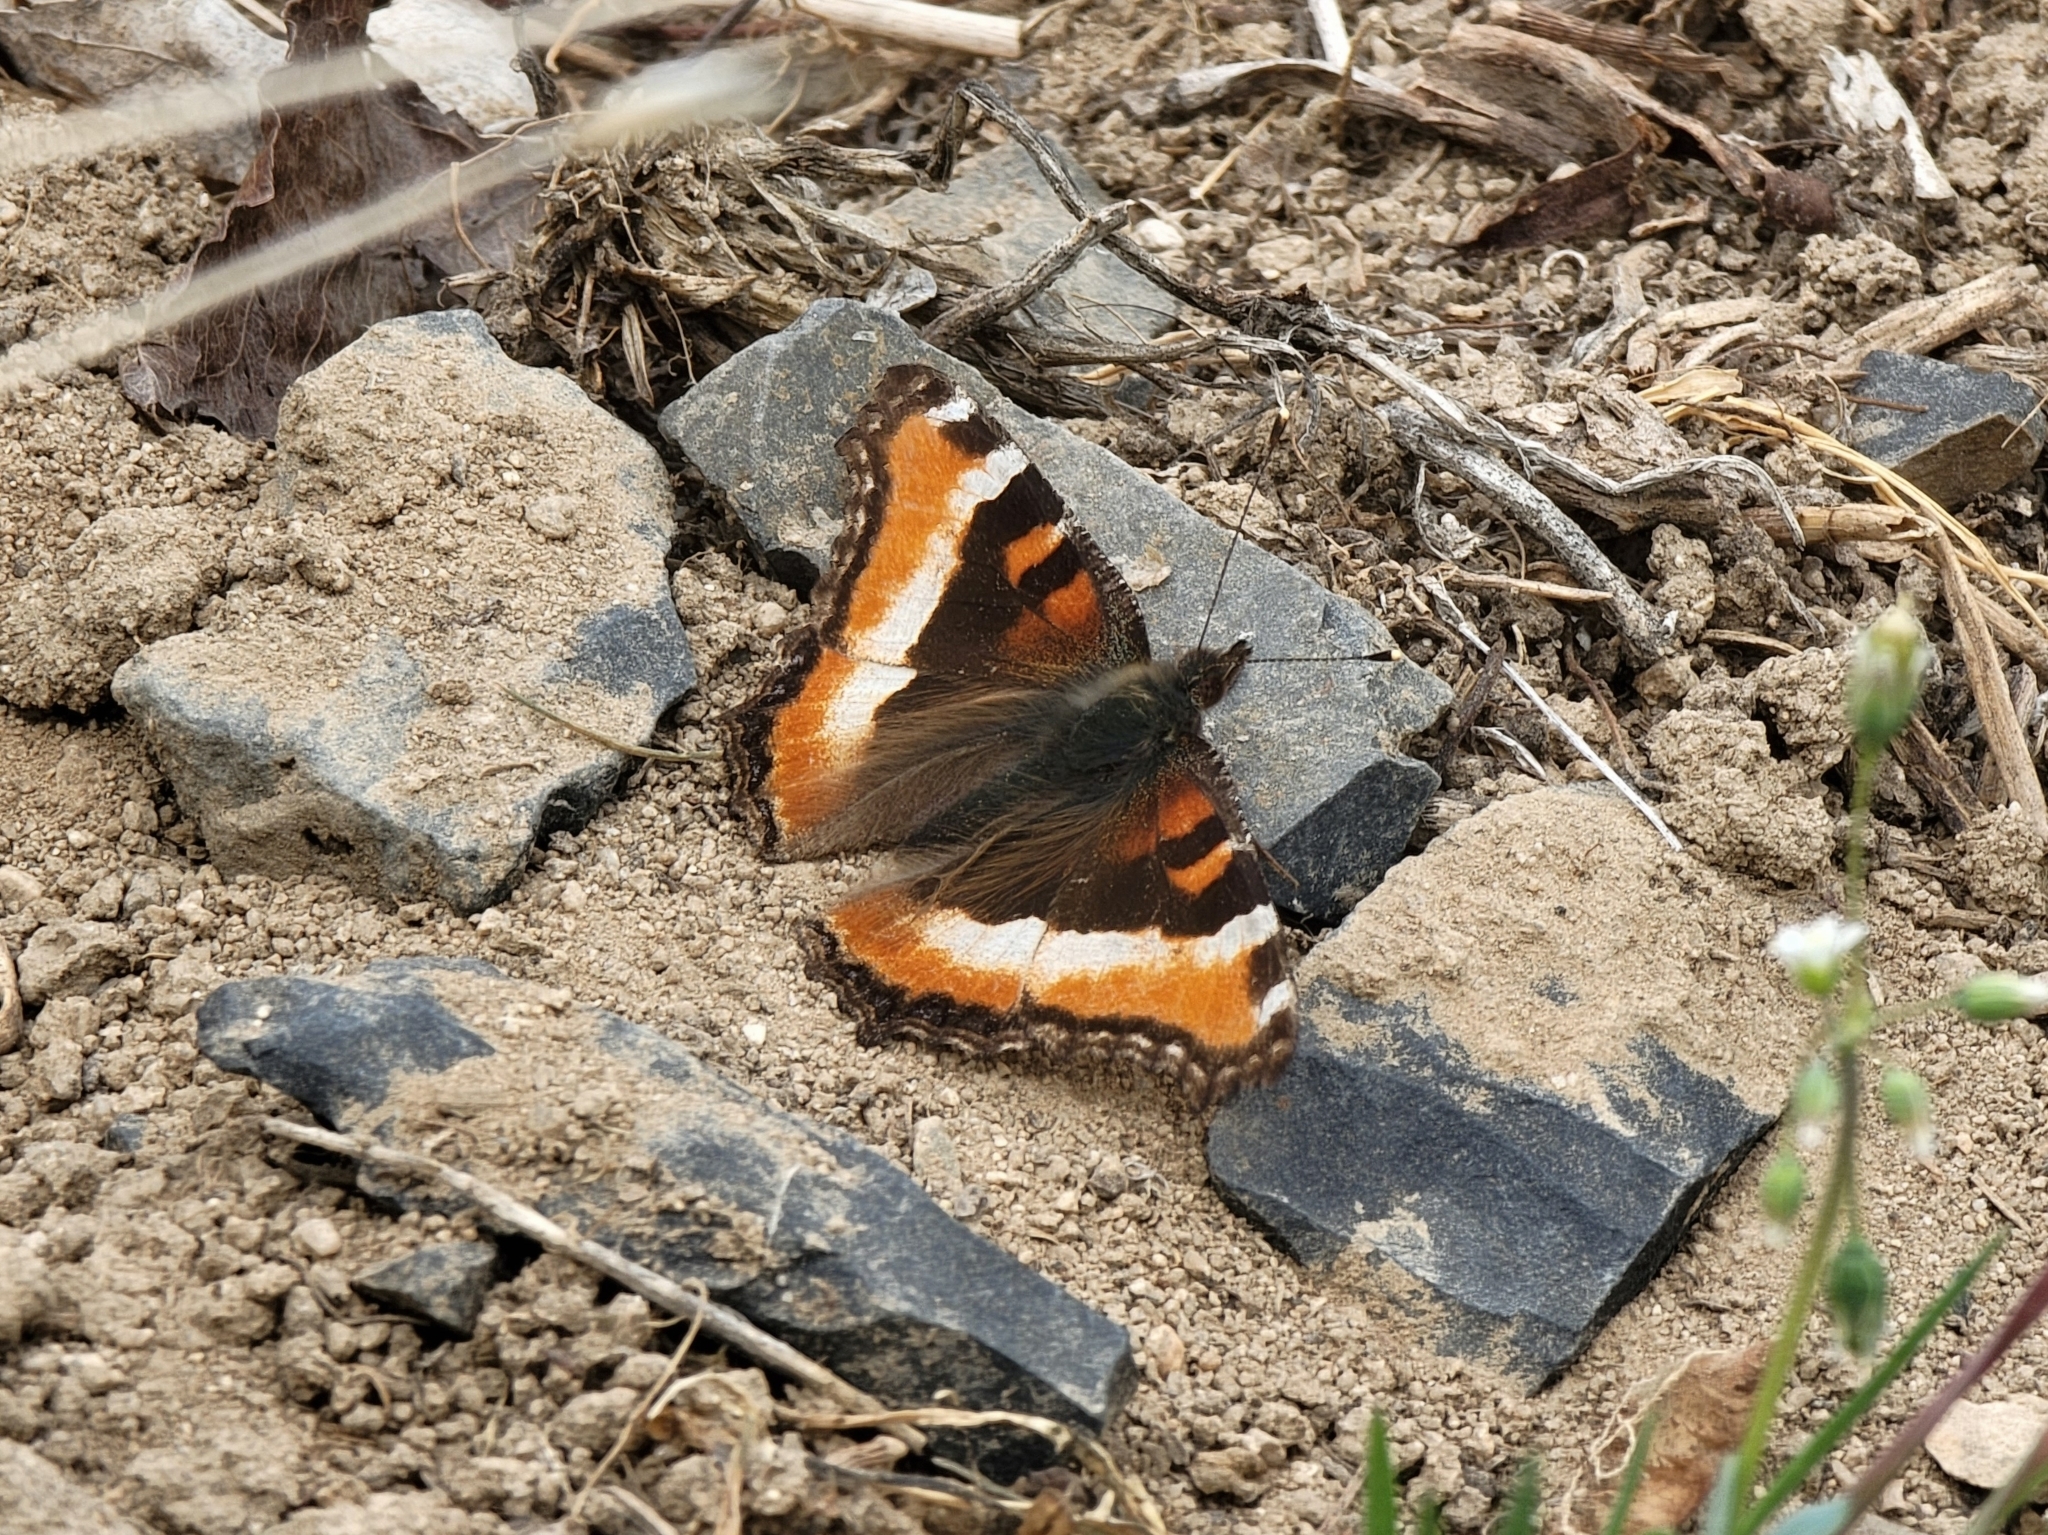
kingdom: Animalia
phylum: Arthropoda
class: Insecta
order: Lepidoptera
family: Nymphalidae
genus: Aglais
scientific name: Aglais milberti
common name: Milbert's tortoiseshell
